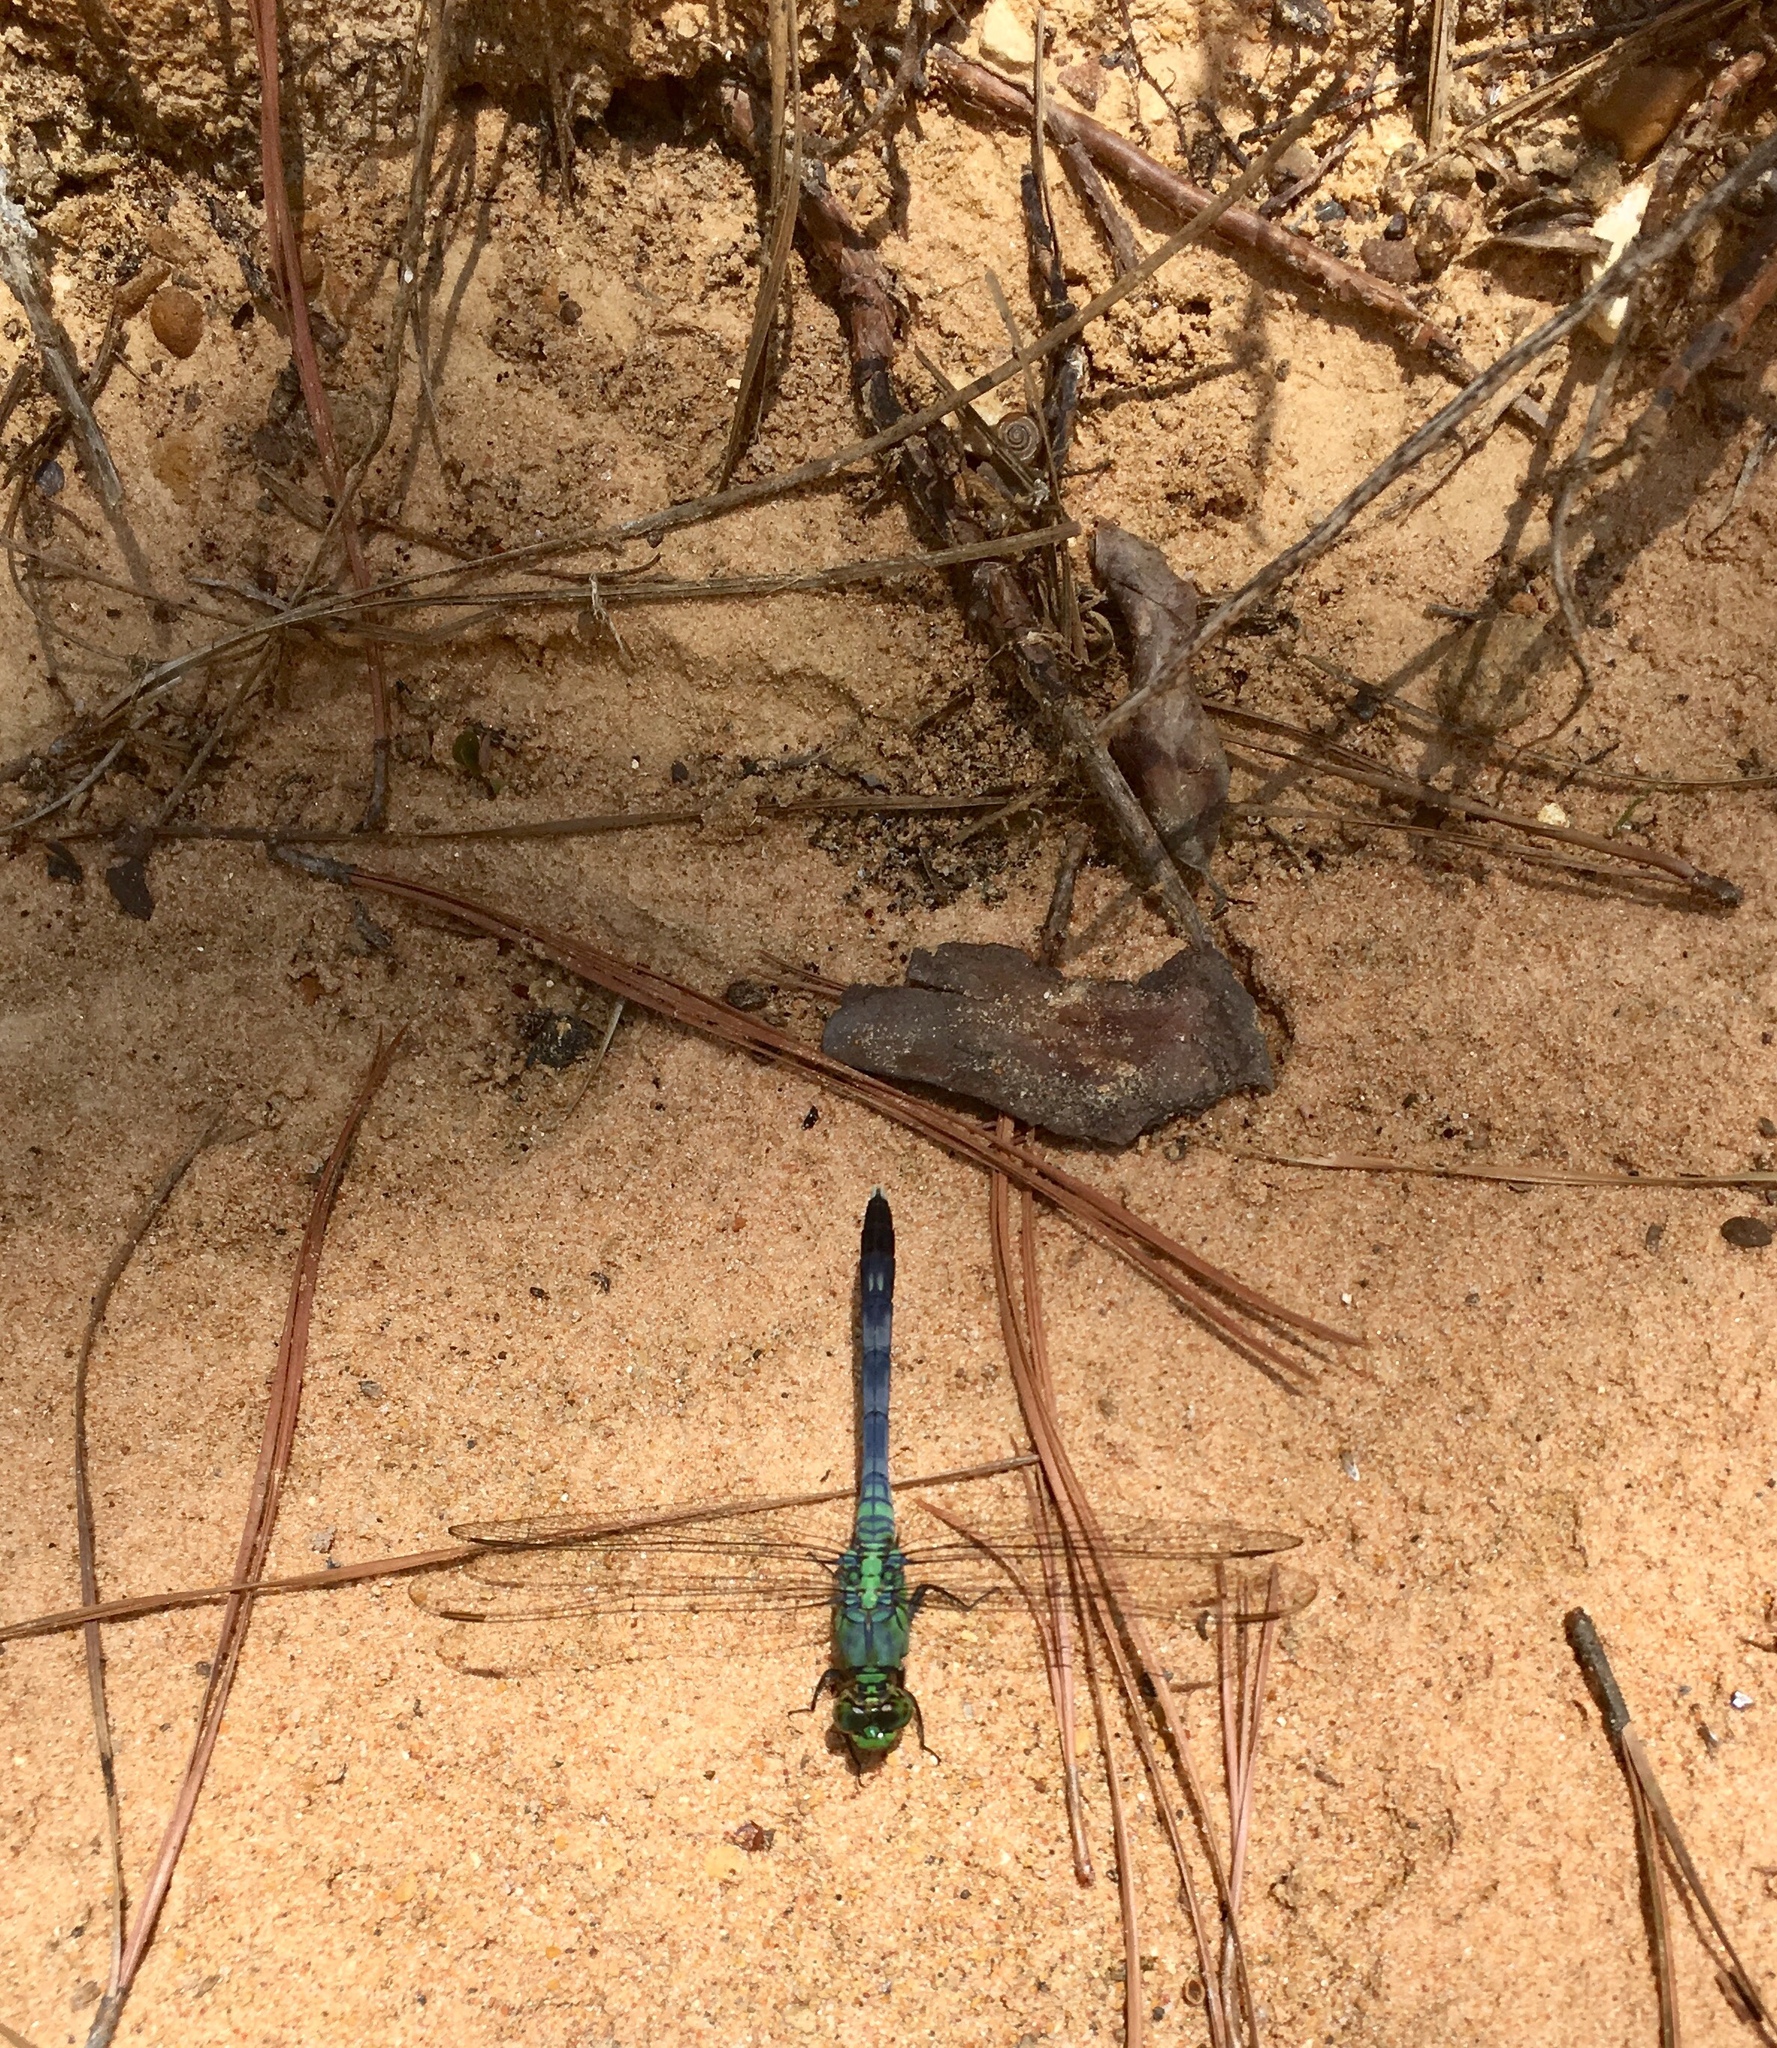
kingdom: Animalia
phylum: Arthropoda
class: Insecta
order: Odonata
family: Libellulidae
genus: Erythemis
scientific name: Erythemis simplicicollis
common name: Eastern pondhawk
